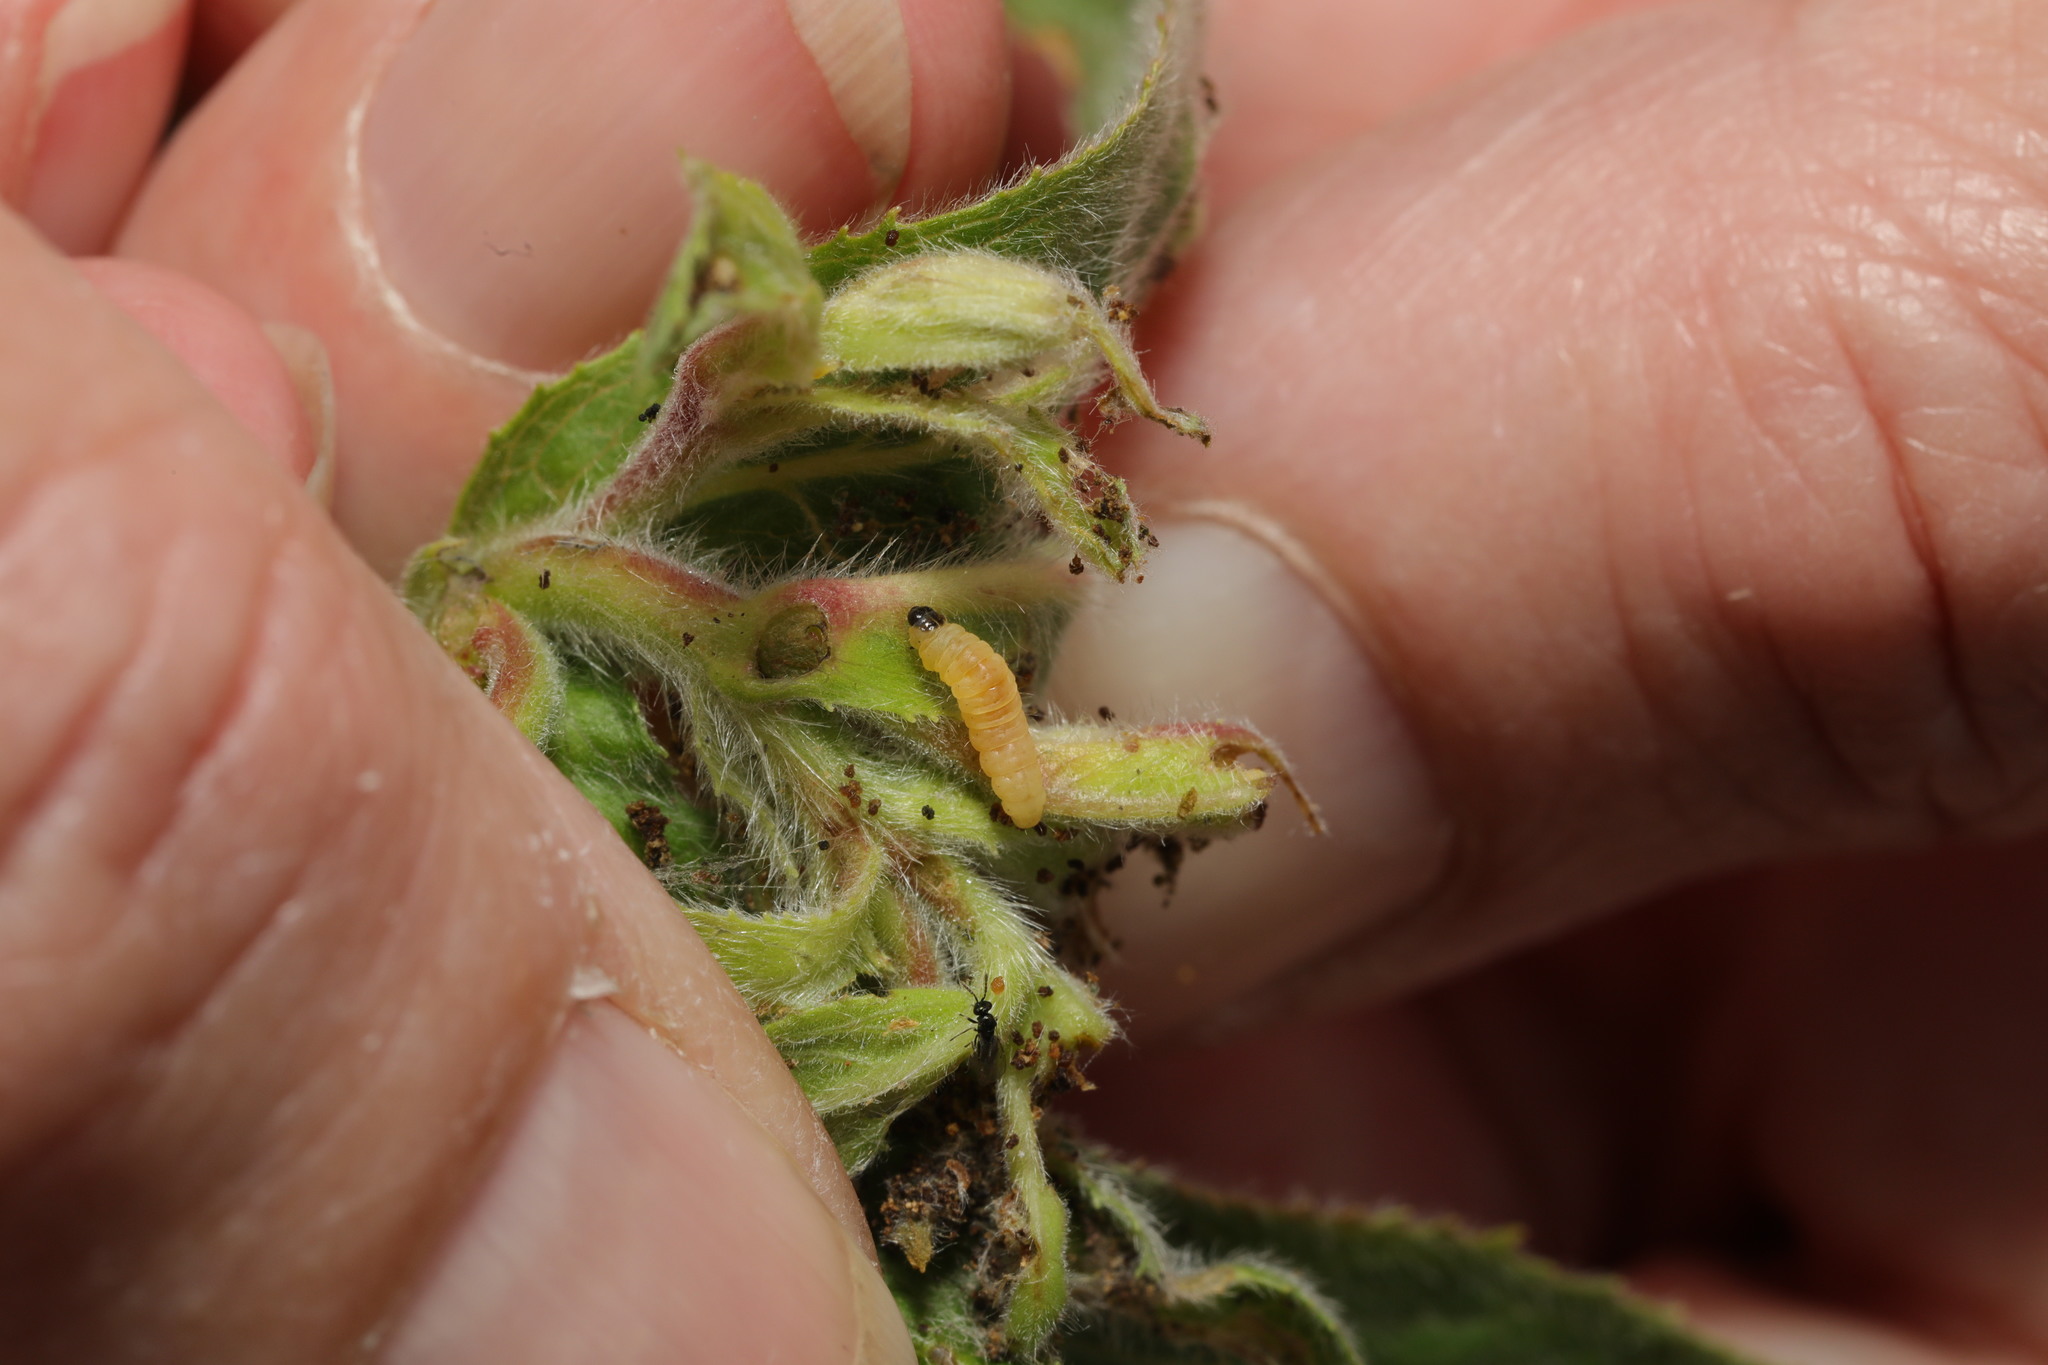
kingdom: Animalia
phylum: Arthropoda
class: Insecta
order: Lepidoptera
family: Momphidae
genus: Mompha
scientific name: Mompha epilobiella
